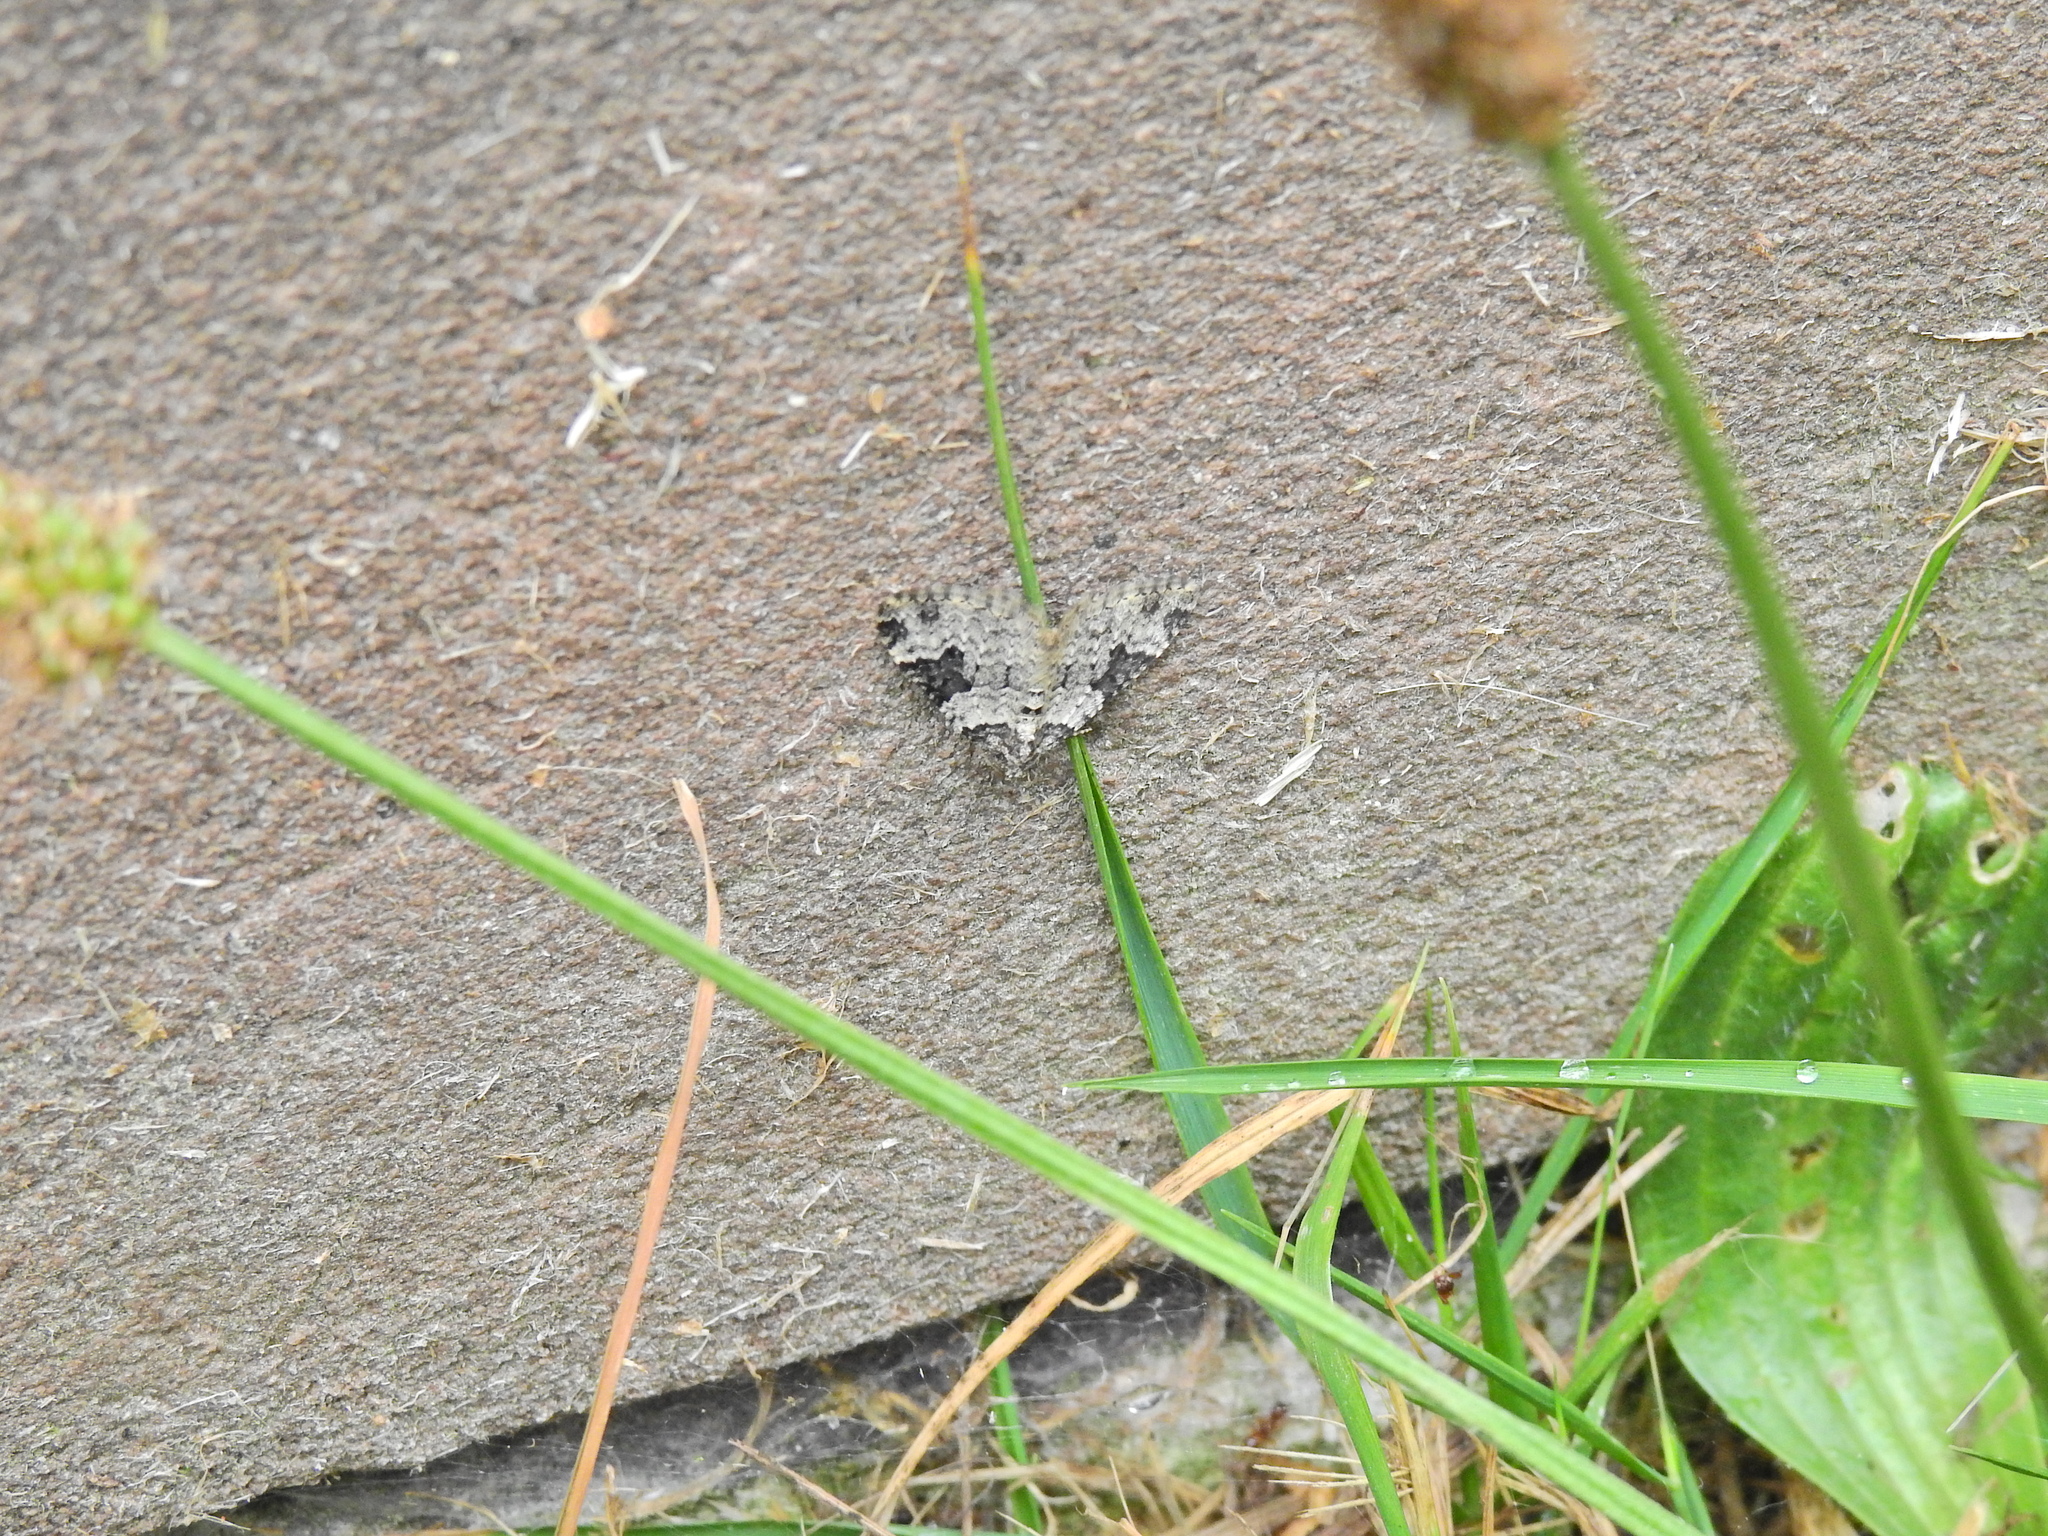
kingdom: Animalia
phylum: Arthropoda
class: Insecta
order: Lepidoptera
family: Geometridae
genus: Xanthorhoe
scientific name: Xanthorhoe fluctuata
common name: Garden carpet
